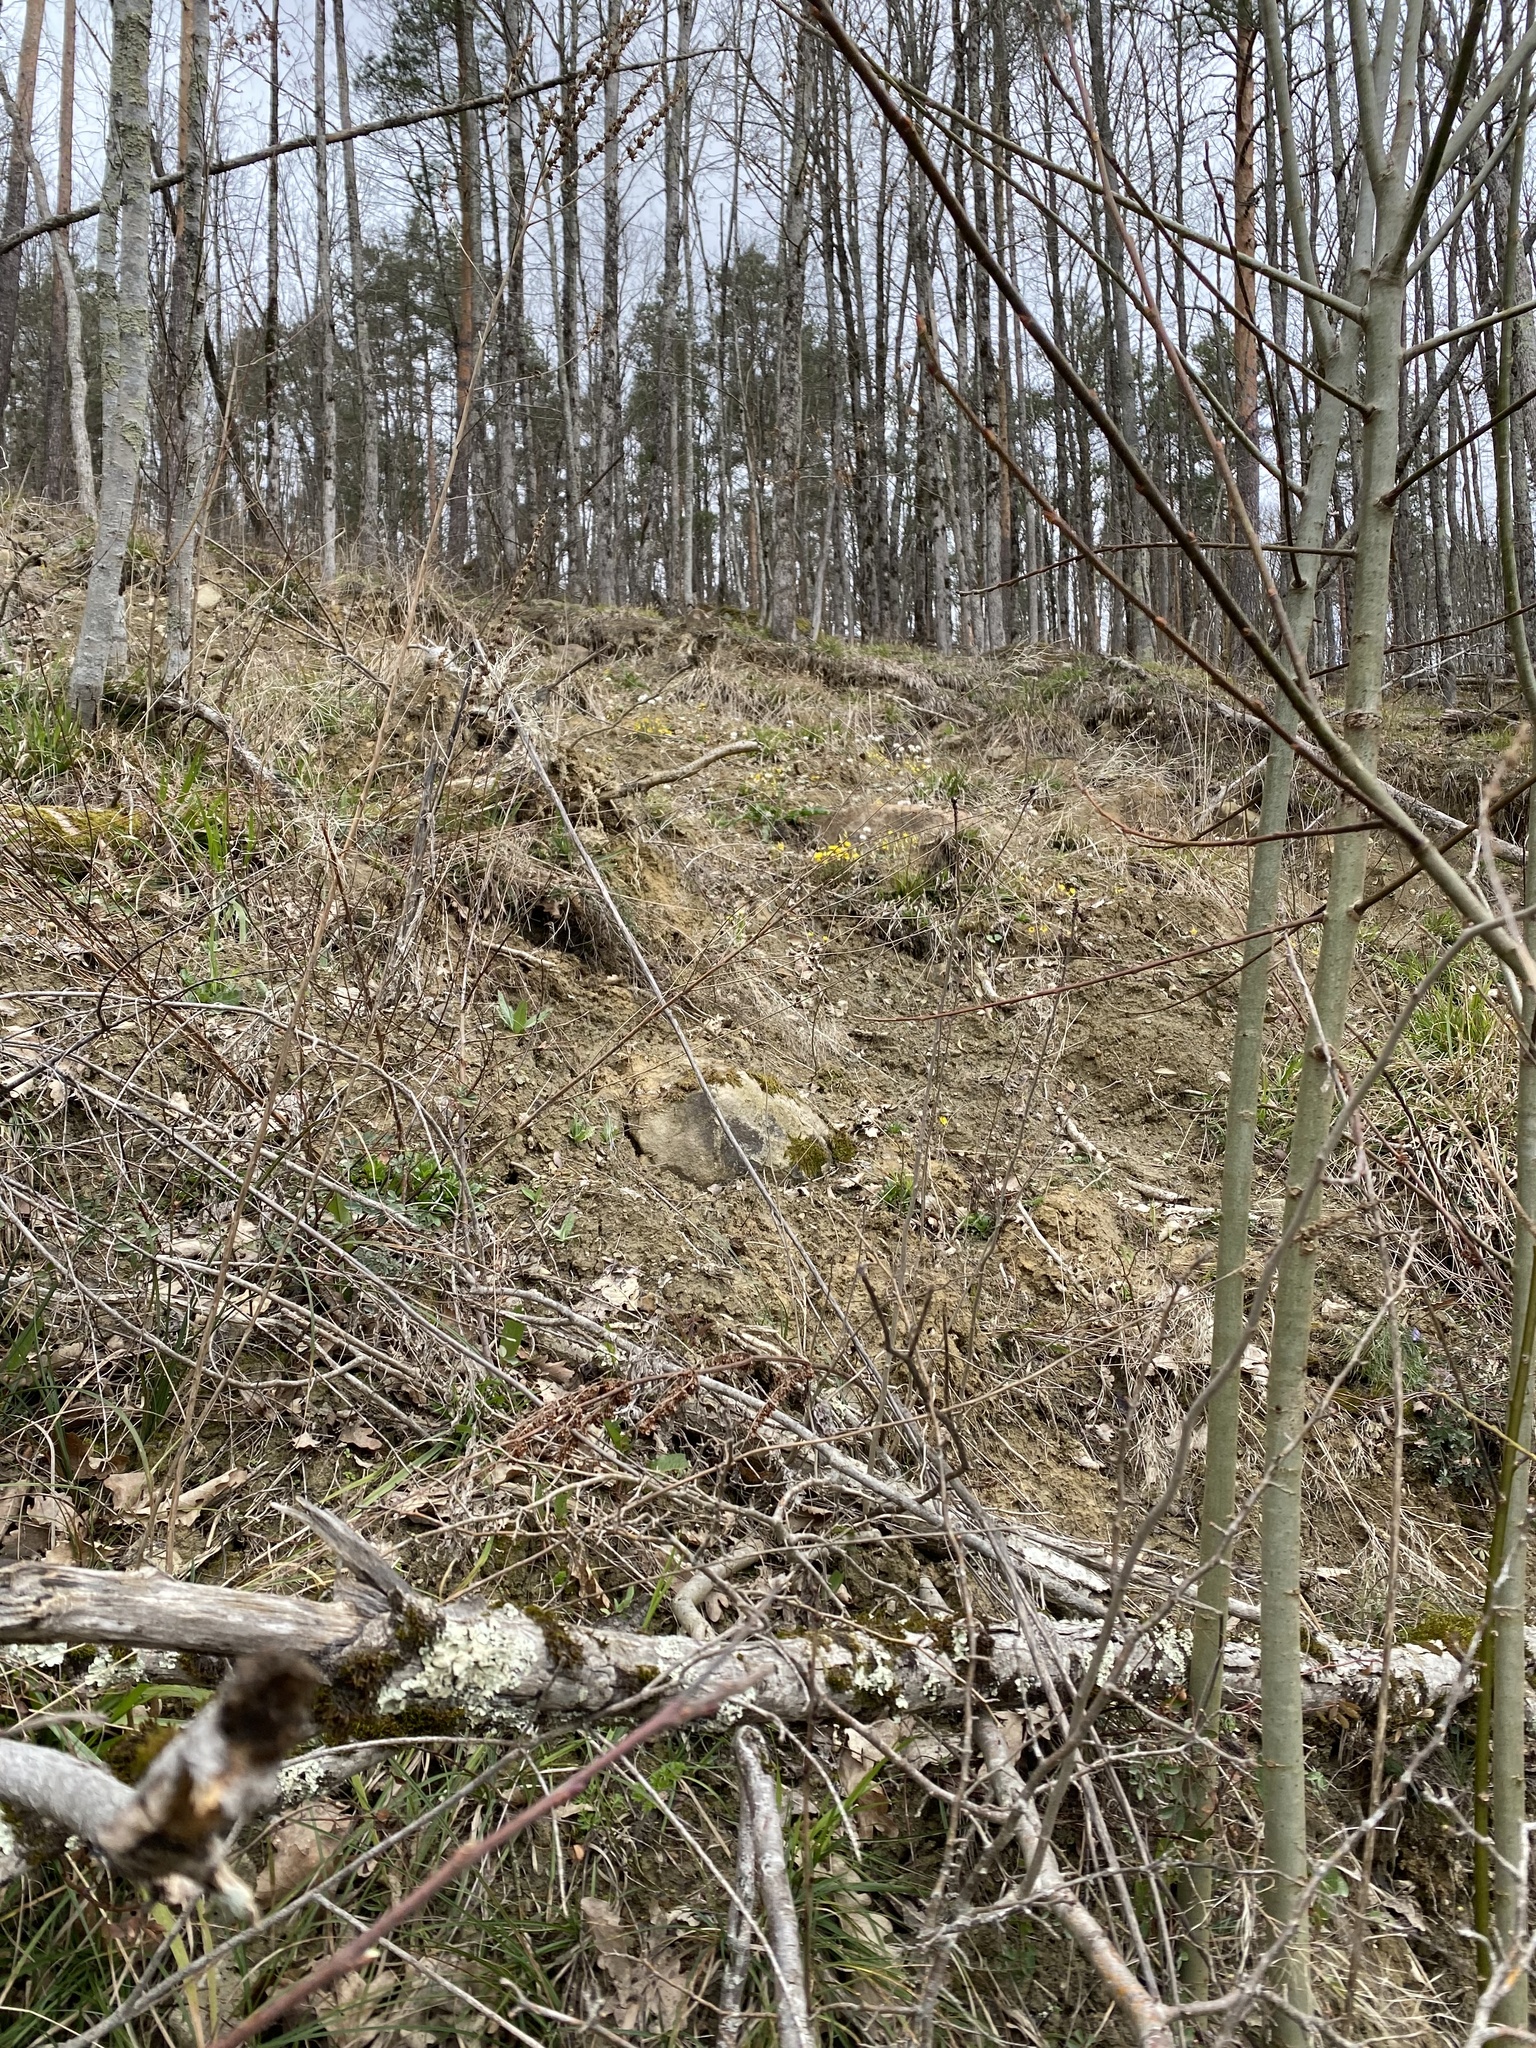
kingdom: Plantae
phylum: Tracheophyta
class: Magnoliopsida
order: Asterales
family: Asteraceae
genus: Tussilago
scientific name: Tussilago farfara
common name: Coltsfoot
